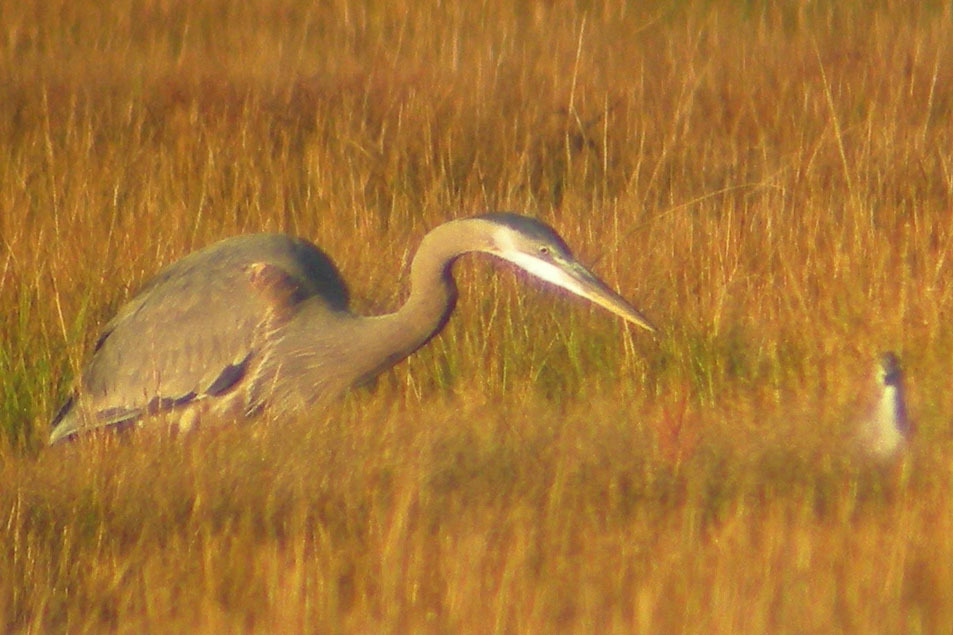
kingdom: Animalia
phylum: Chordata
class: Aves
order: Pelecaniformes
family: Ardeidae
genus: Ardea
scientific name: Ardea herodias
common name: Great blue heron
